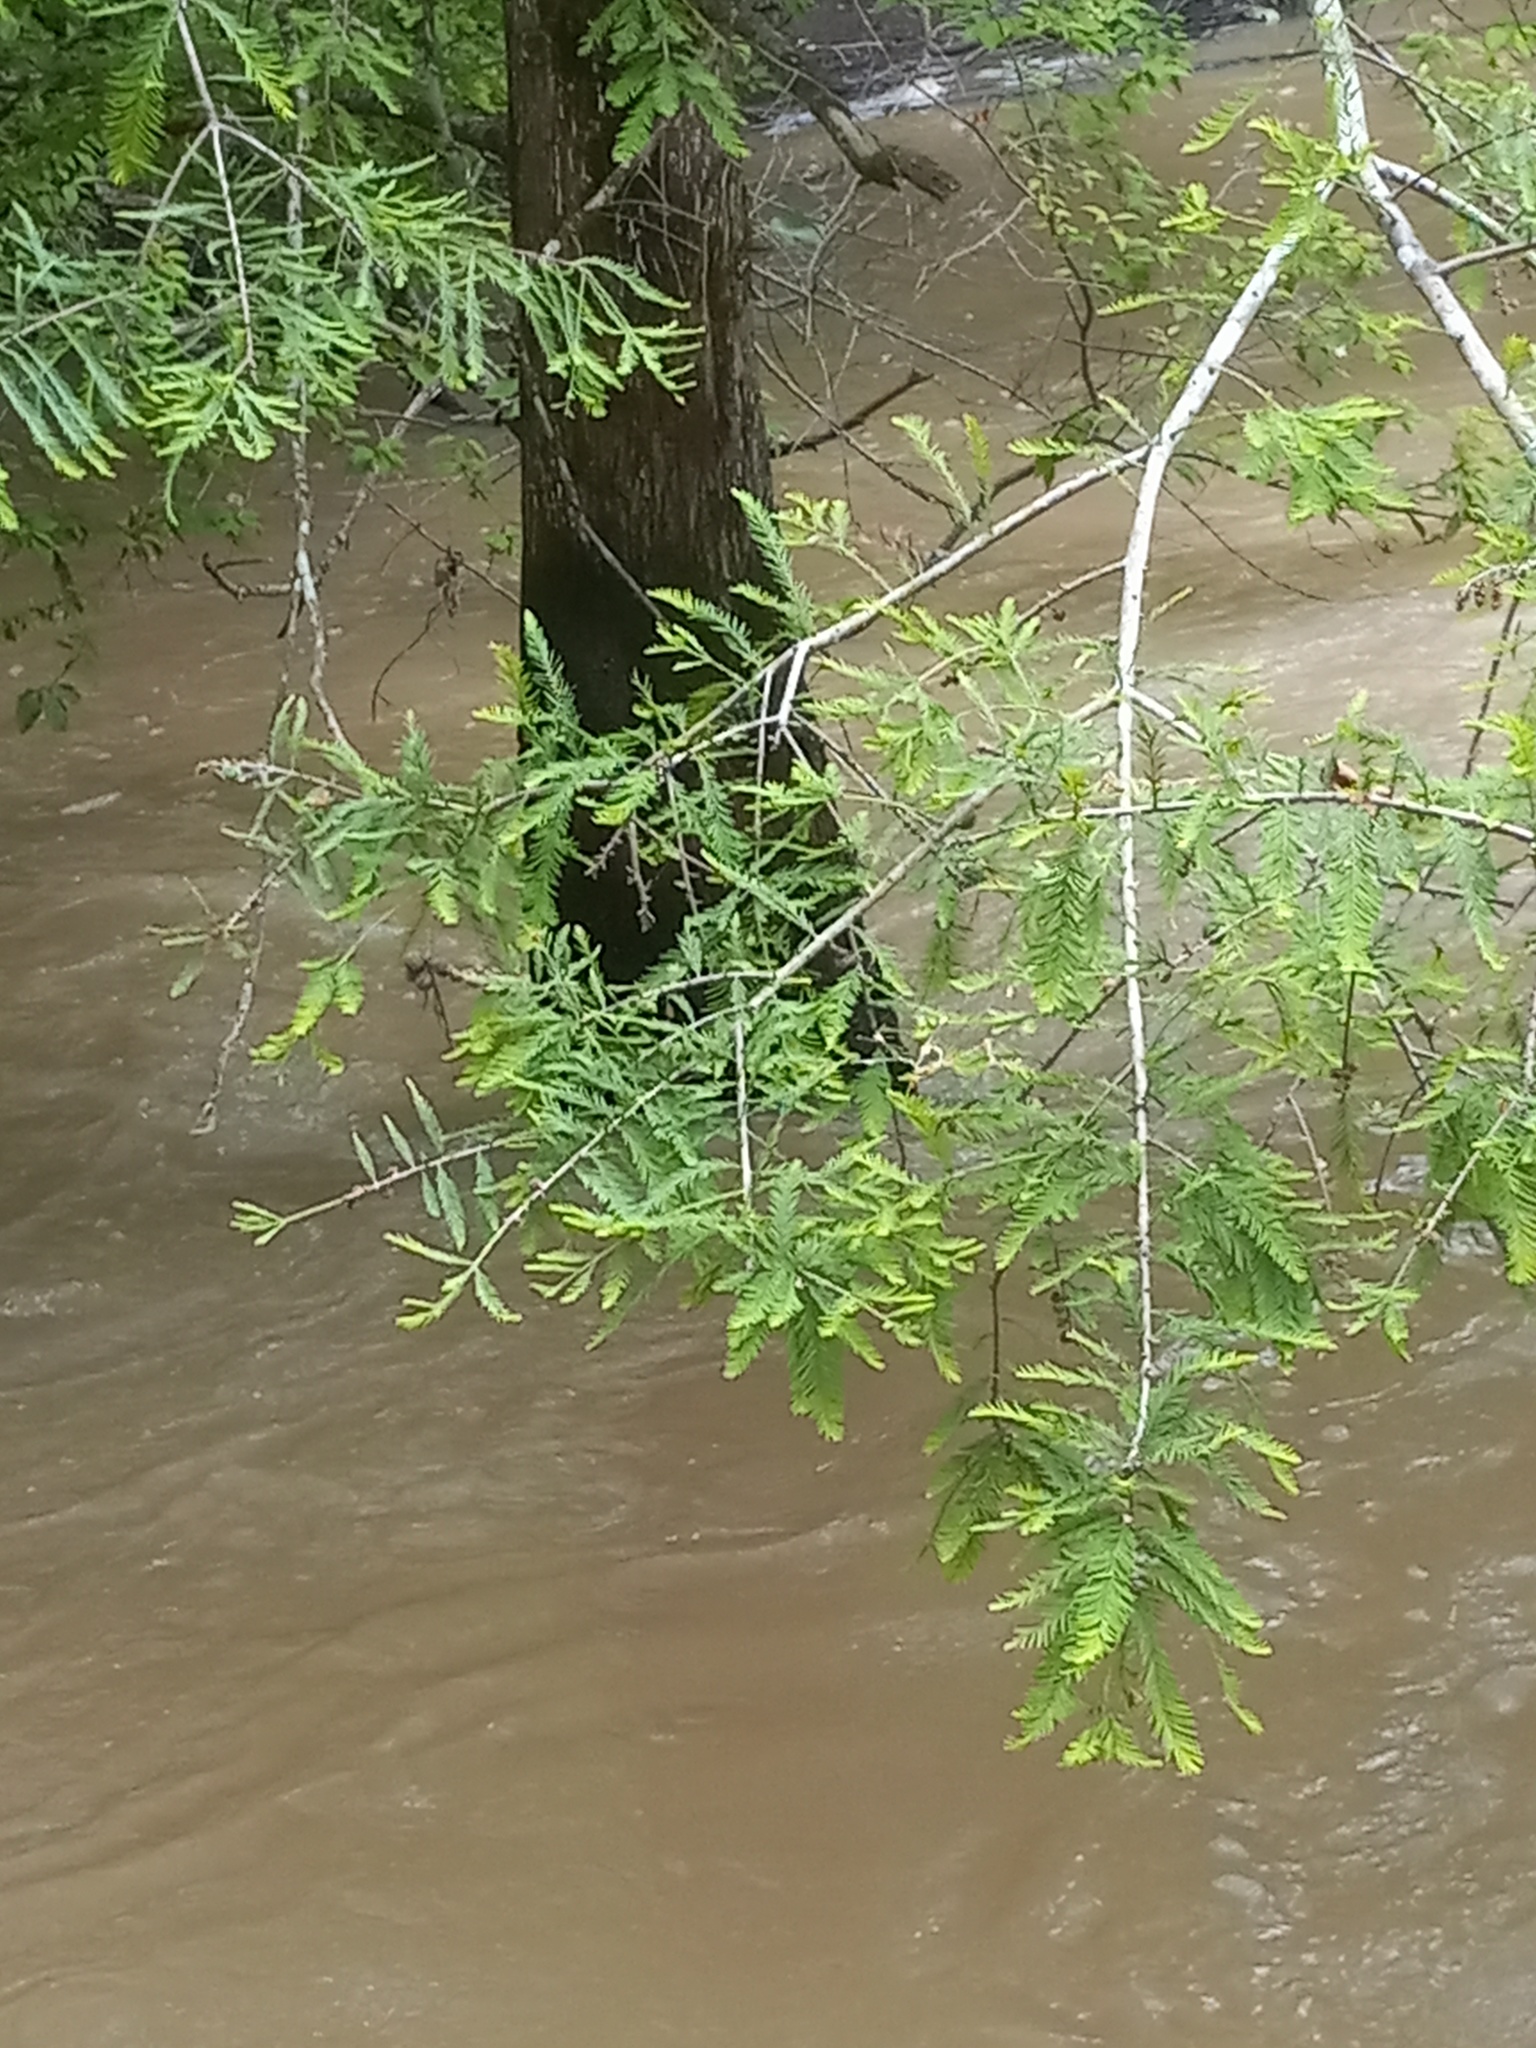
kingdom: Plantae
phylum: Tracheophyta
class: Pinopsida
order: Pinales
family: Cupressaceae
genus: Taxodium
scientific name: Taxodium distichum
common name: Bald cypress
